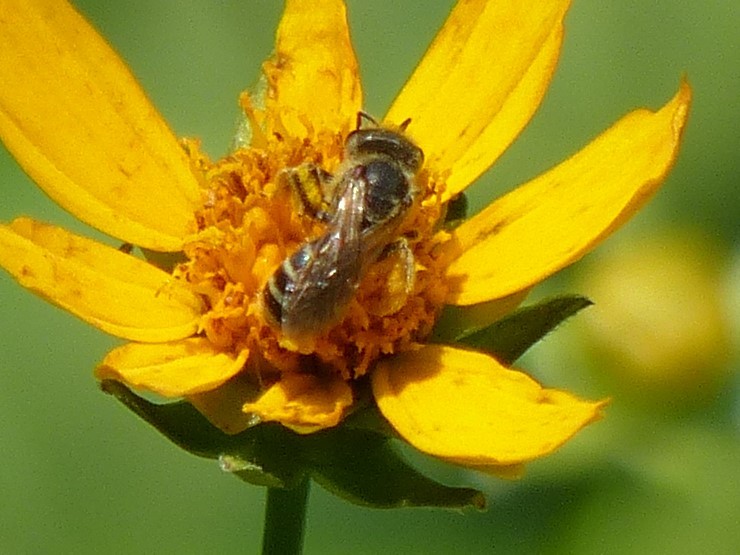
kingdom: Animalia
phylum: Arthropoda
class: Insecta
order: Hymenoptera
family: Halictidae
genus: Halictus
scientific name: Halictus ligatus
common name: Ligated furrow bee
